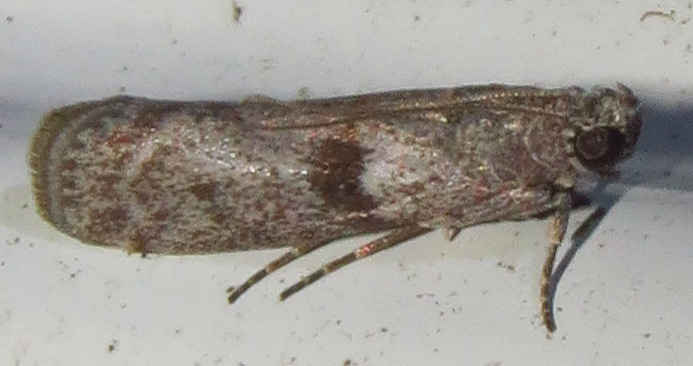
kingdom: Animalia
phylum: Arthropoda
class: Insecta
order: Lepidoptera
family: Pyralidae
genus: Vitula
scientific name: Vitula
